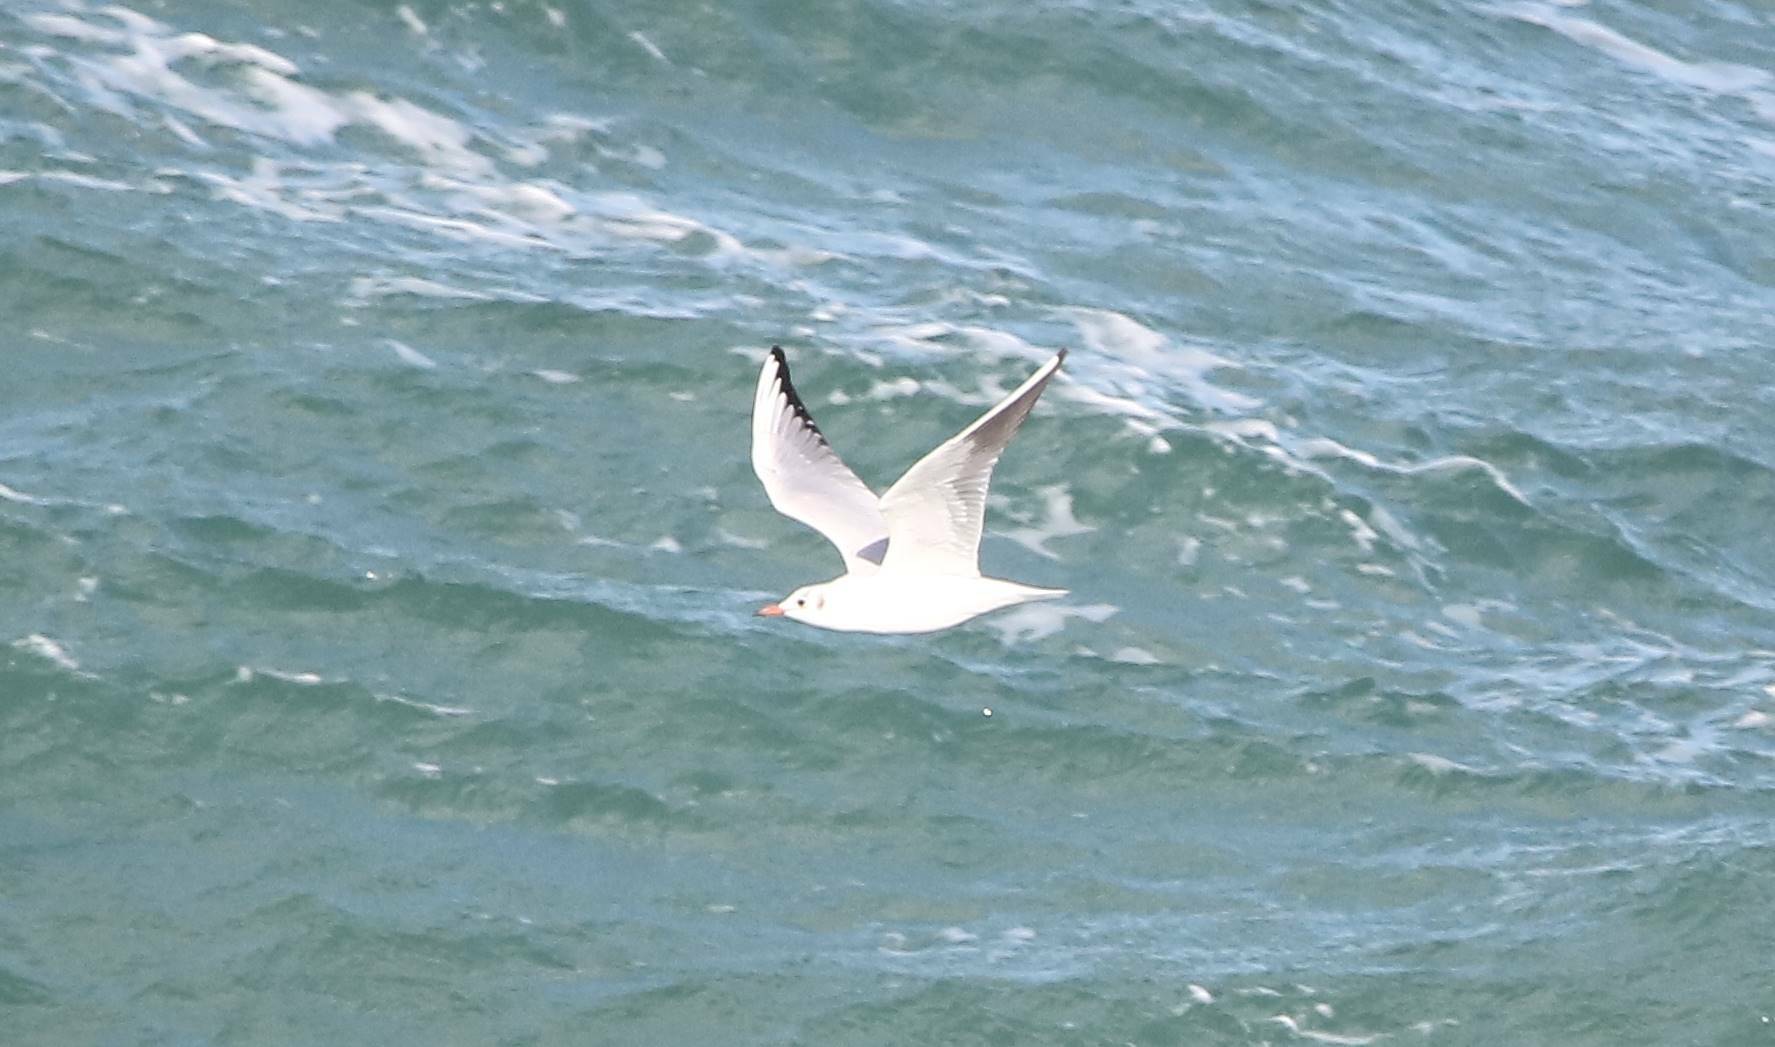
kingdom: Animalia
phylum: Chordata
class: Aves
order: Charadriiformes
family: Laridae
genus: Chroicocephalus
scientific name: Chroicocephalus ridibundus
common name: Black-headed gull
